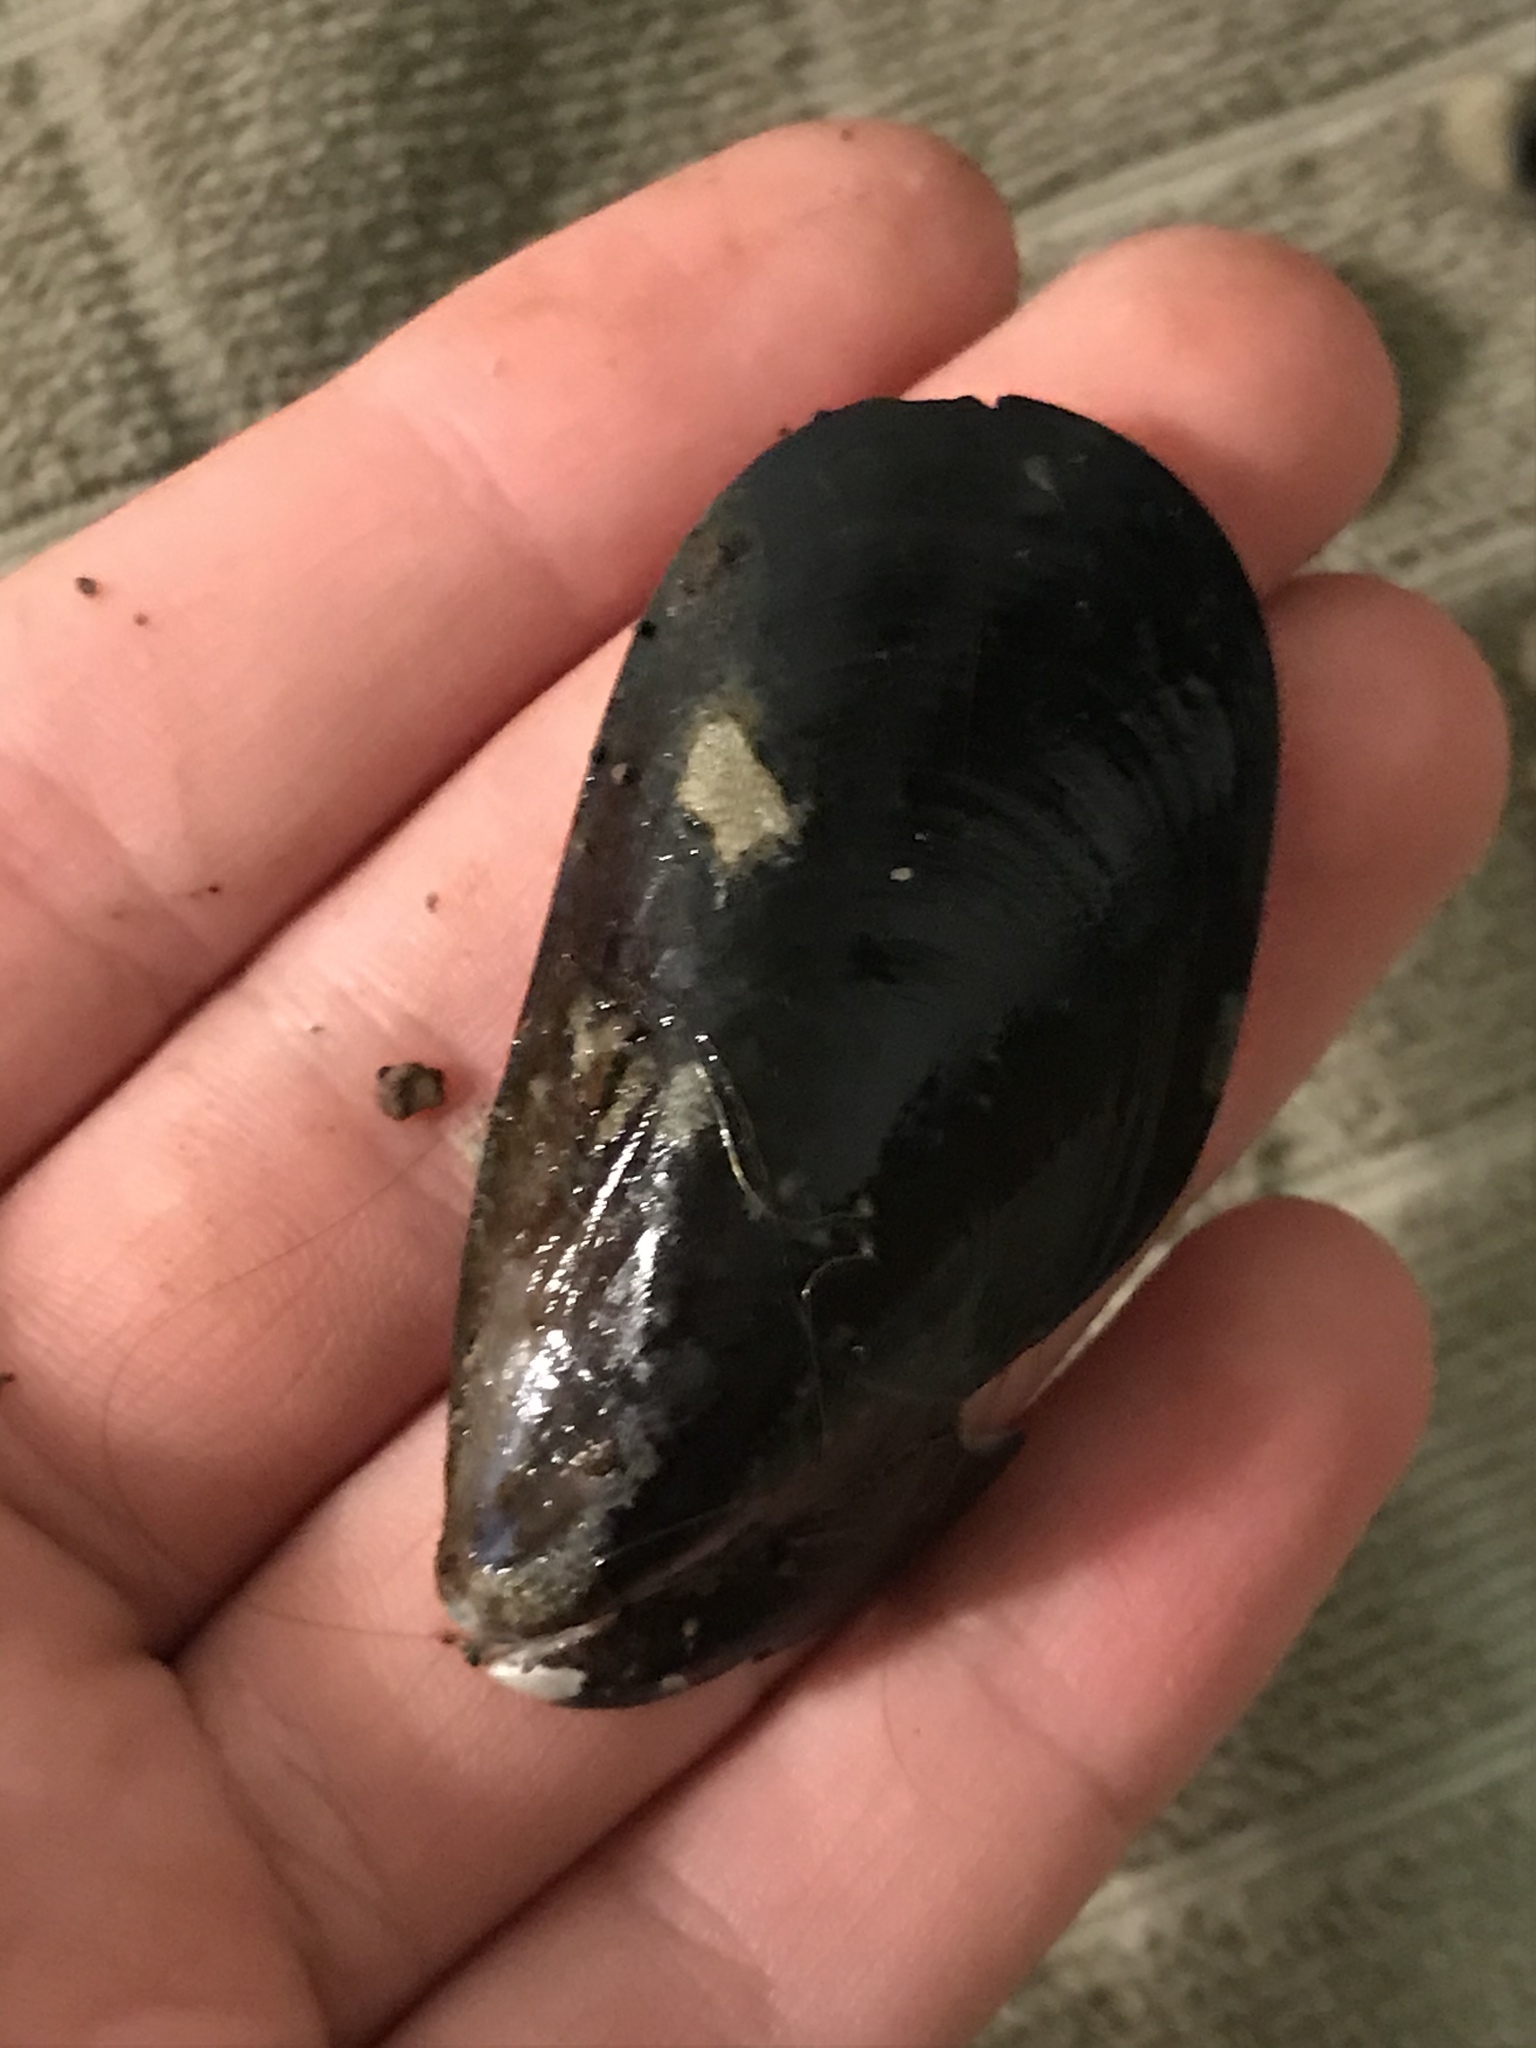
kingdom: Animalia
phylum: Mollusca
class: Bivalvia
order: Mytilida
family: Mytilidae
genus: Mytilus
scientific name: Mytilus
